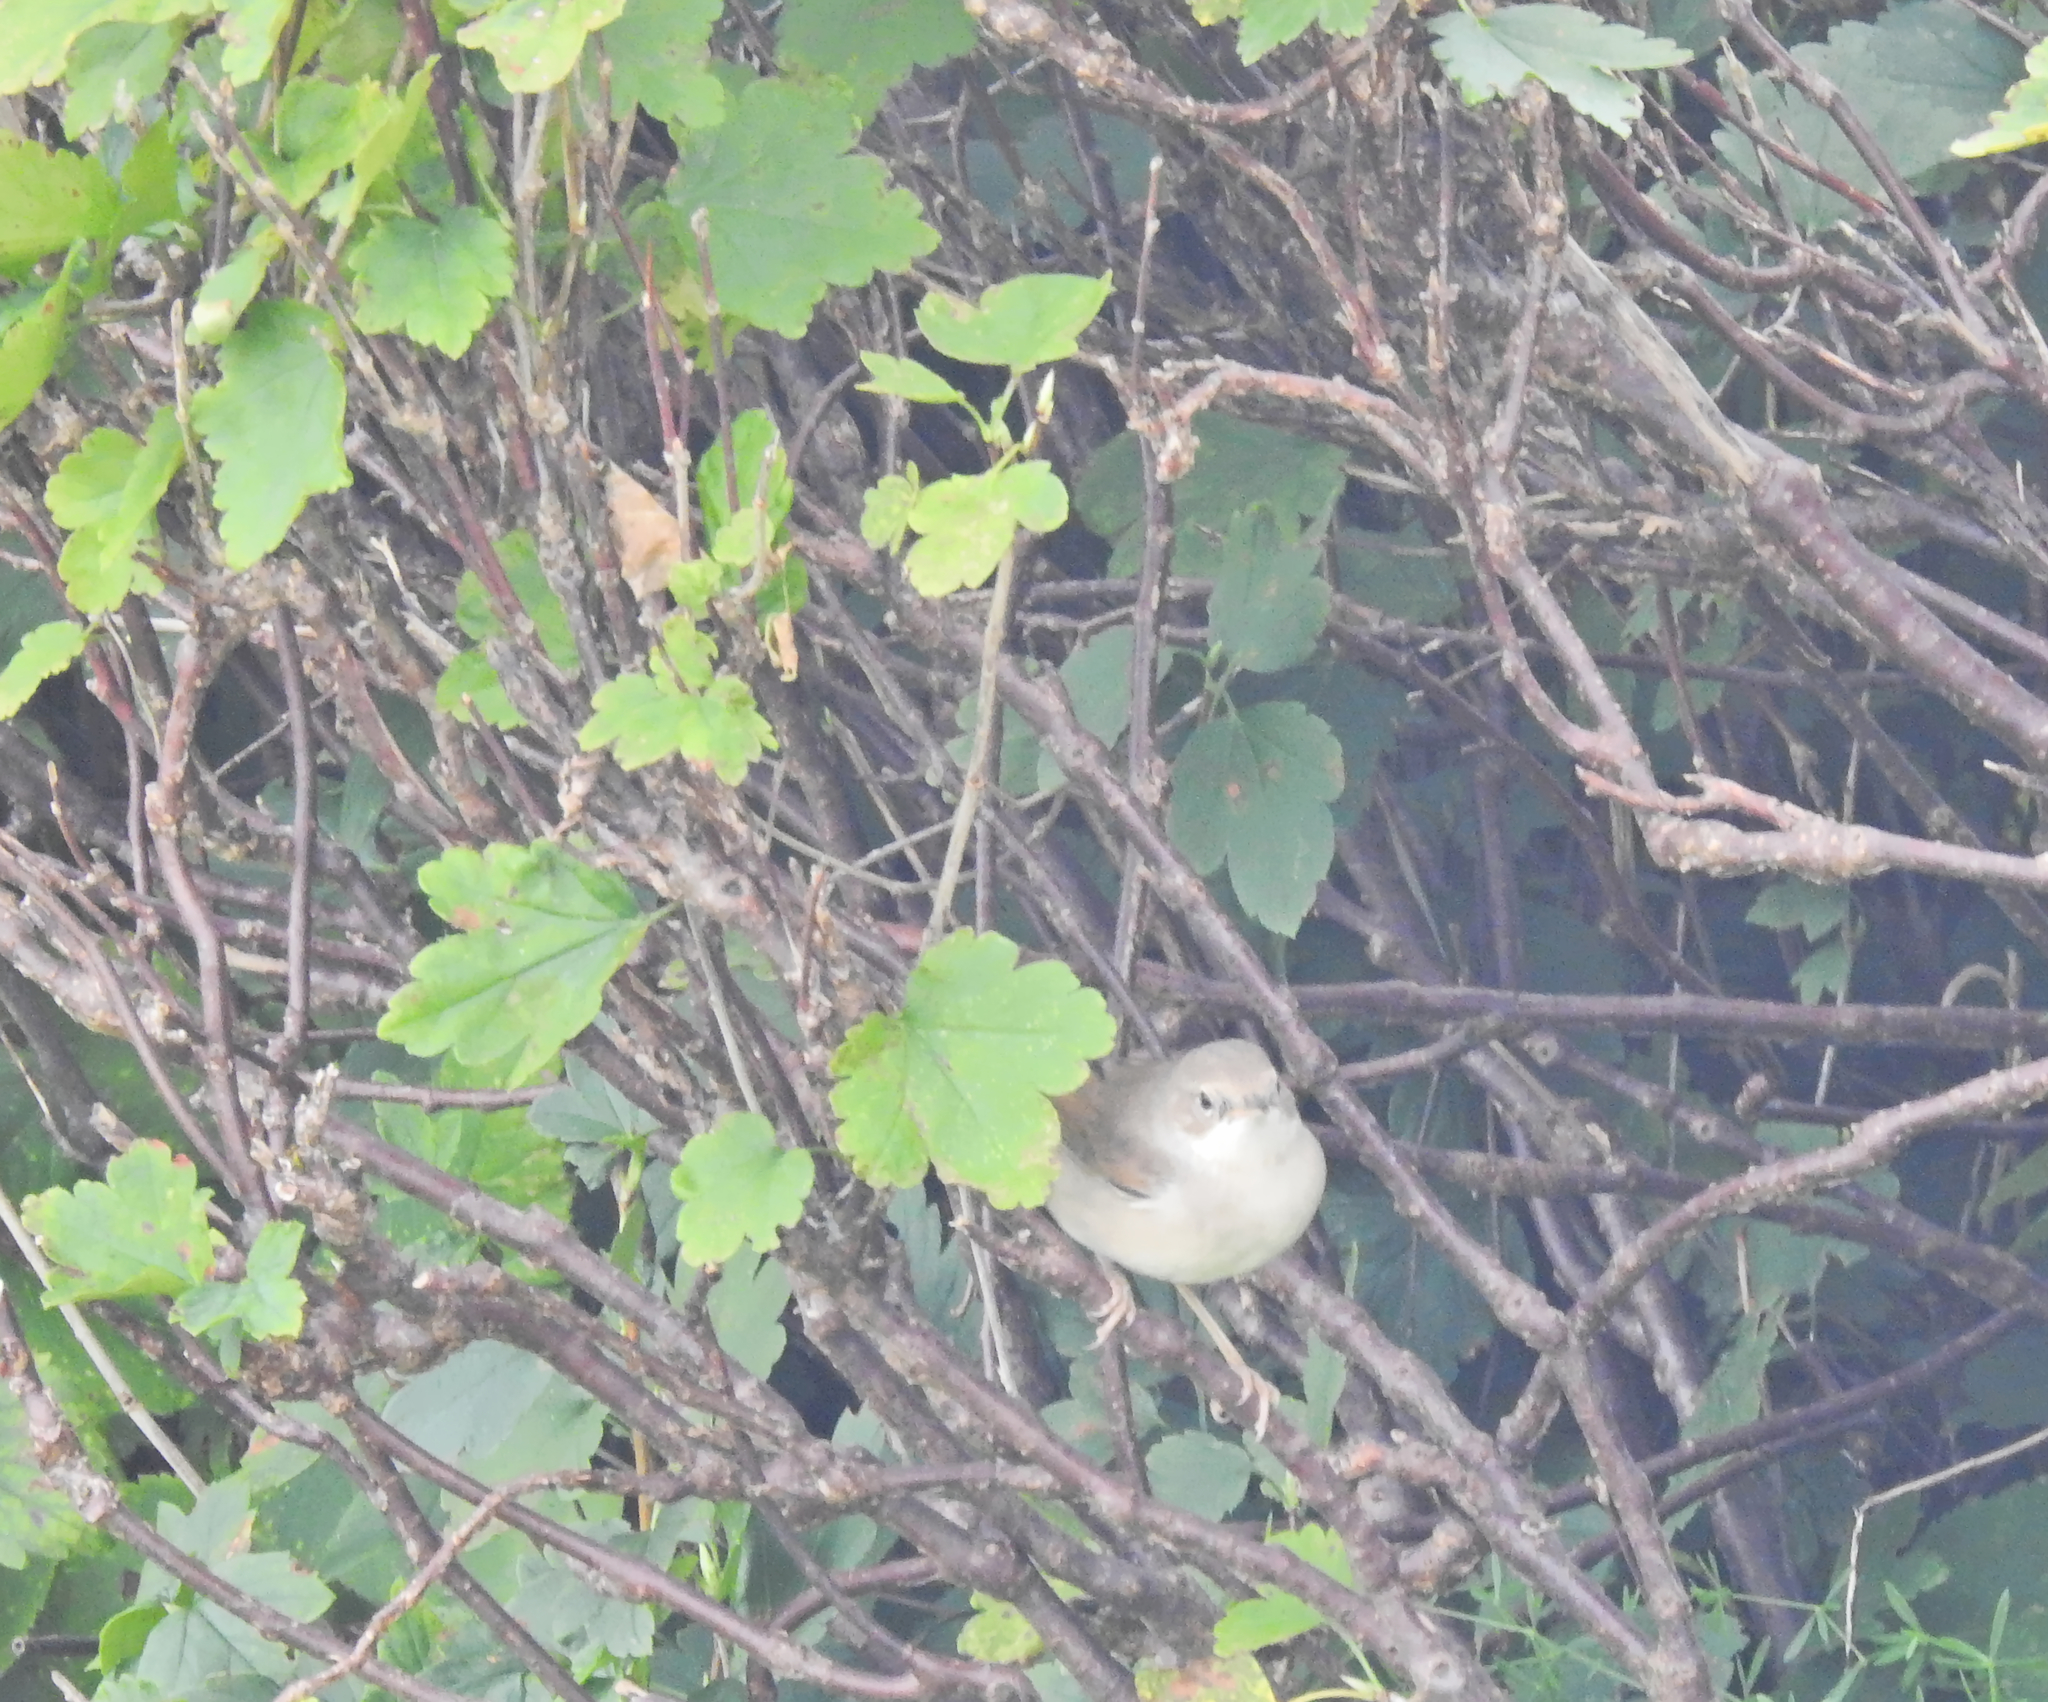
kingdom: Animalia
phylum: Chordata
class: Aves
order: Passeriformes
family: Sylviidae
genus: Sylvia
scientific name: Sylvia communis
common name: Common whitethroat
